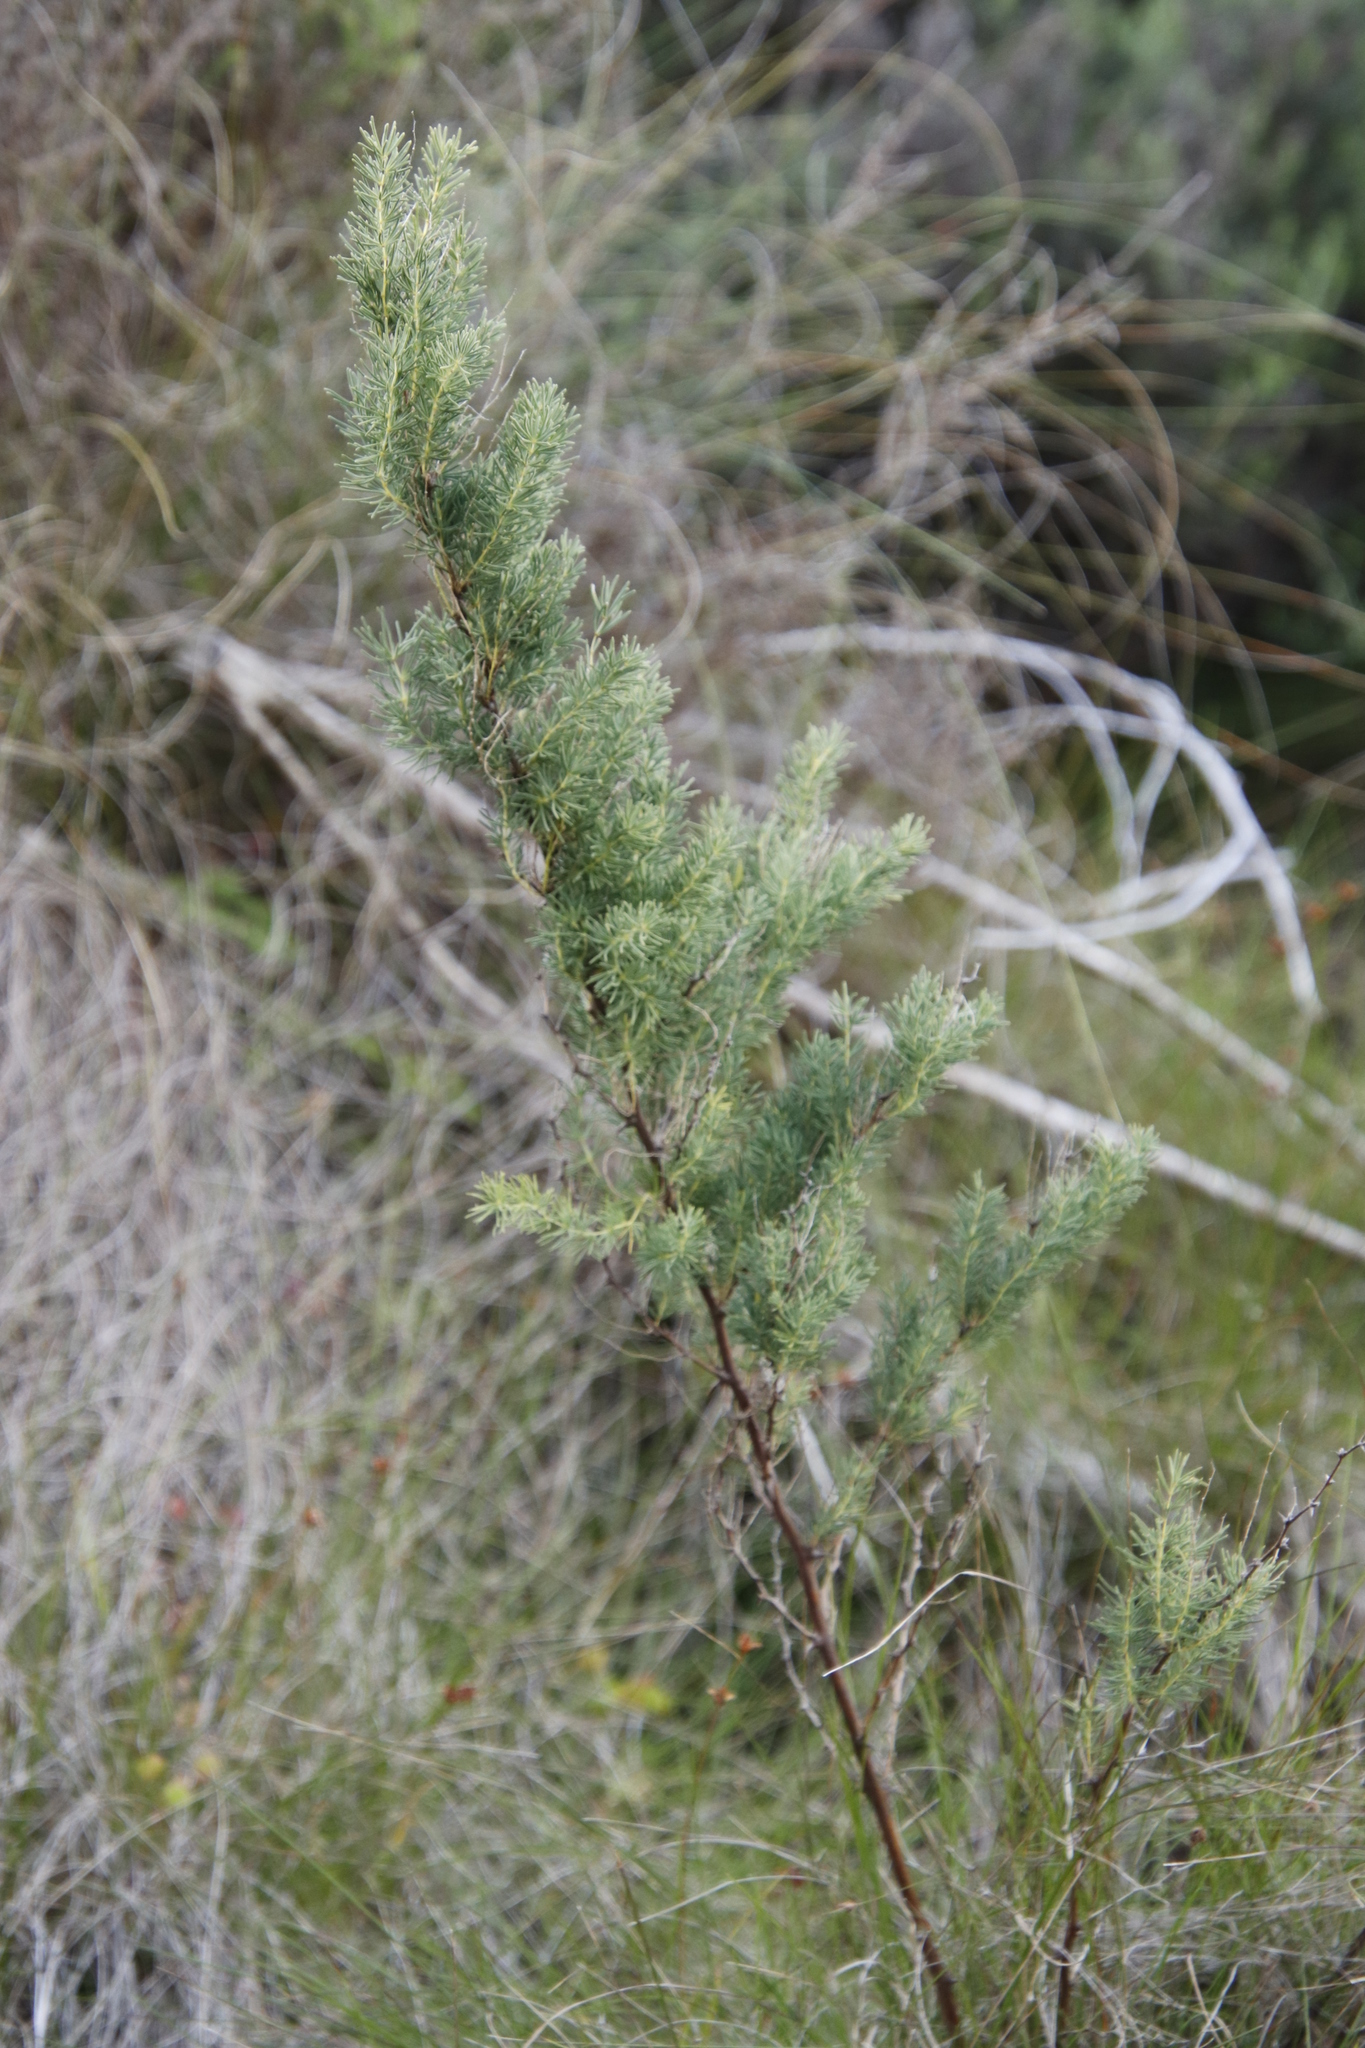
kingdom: Plantae
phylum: Tracheophyta
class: Liliopsida
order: Asparagales
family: Asparagaceae
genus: Asparagus
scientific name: Asparagus rubicundus
